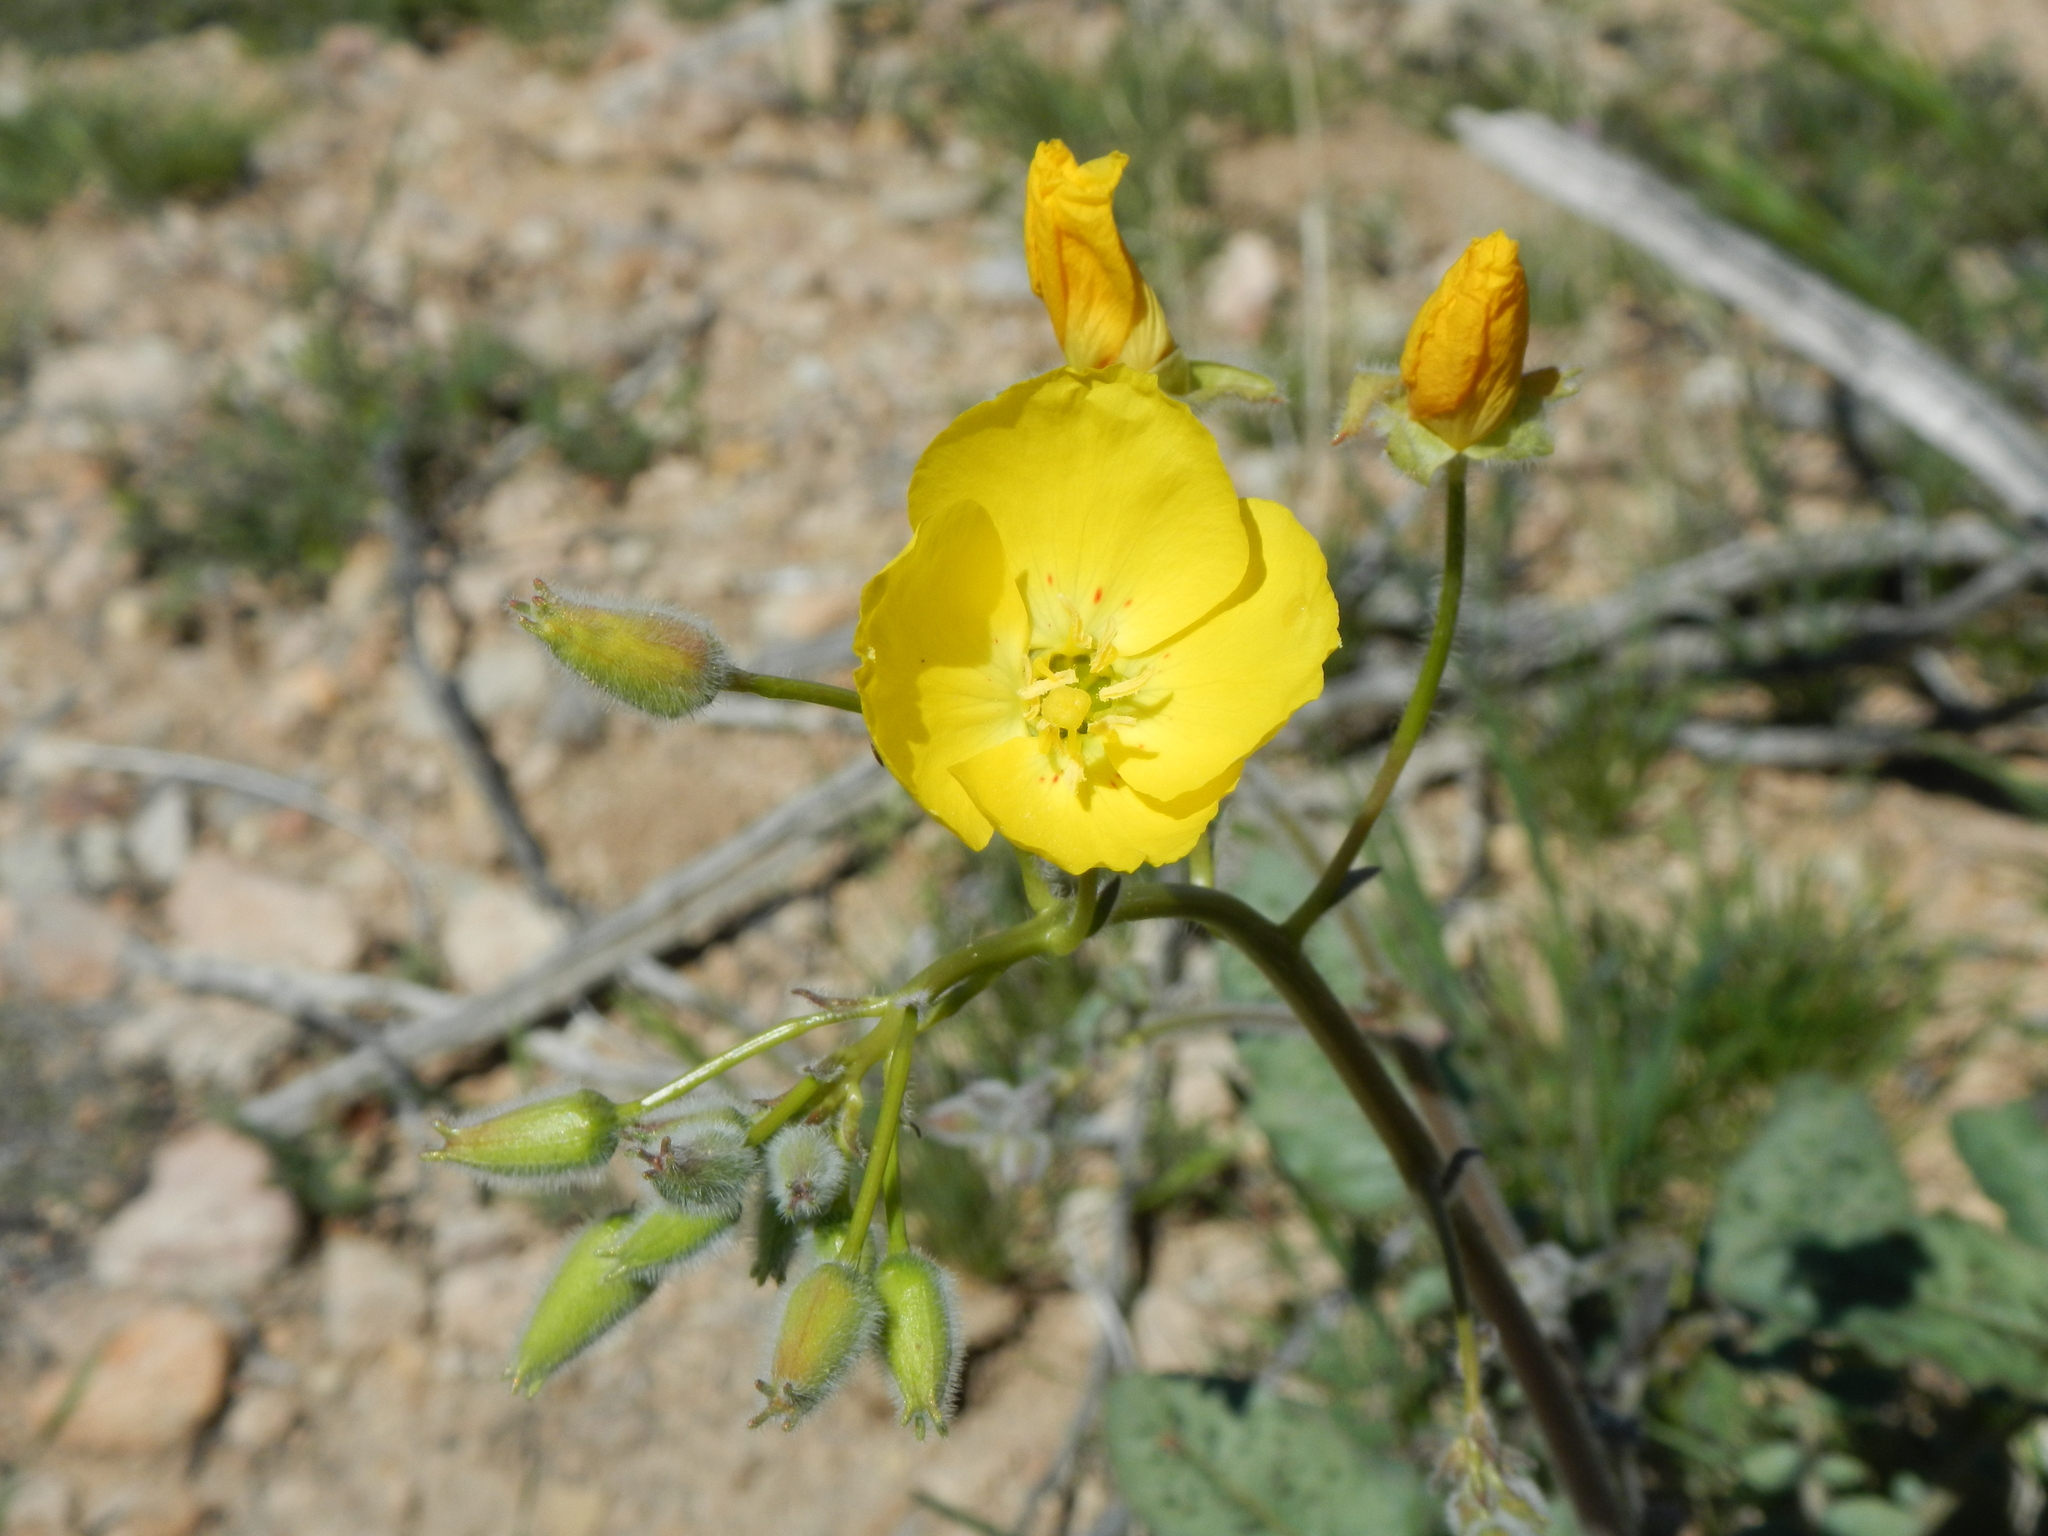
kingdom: Plantae
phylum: Tracheophyta
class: Magnoliopsida
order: Myrtales
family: Onagraceae
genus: Chylismia
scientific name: Chylismia brevipes
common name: Yellow cups
